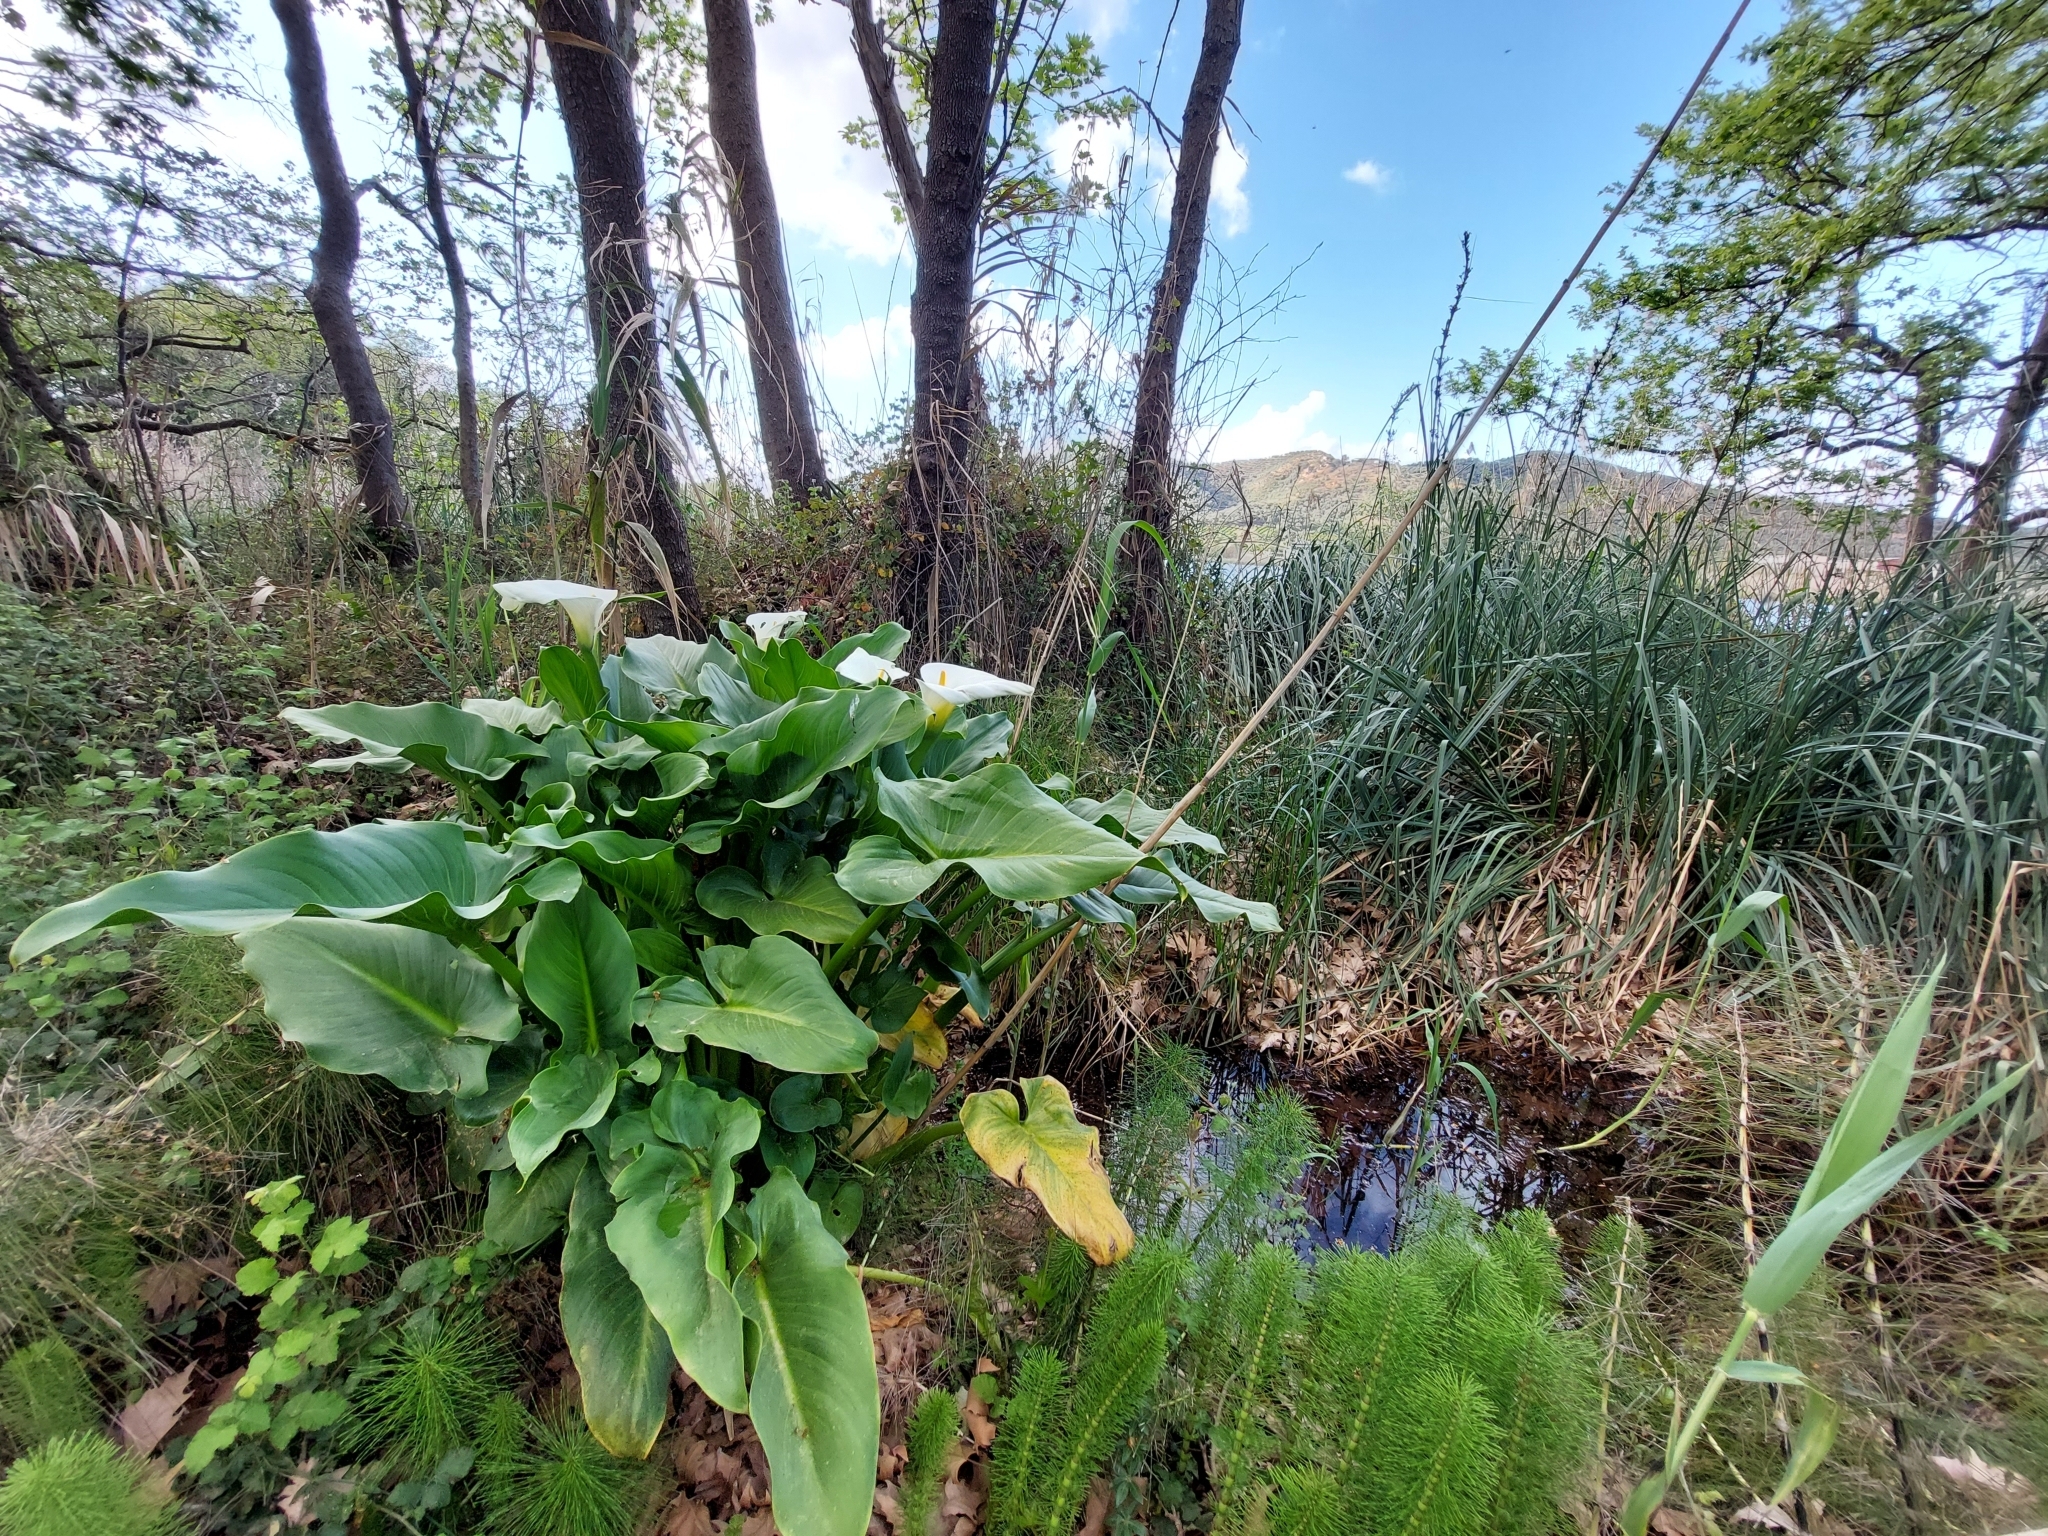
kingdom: Plantae
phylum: Tracheophyta
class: Liliopsida
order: Alismatales
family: Araceae
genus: Zantedeschia
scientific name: Zantedeschia aethiopica
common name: Altar-lily
